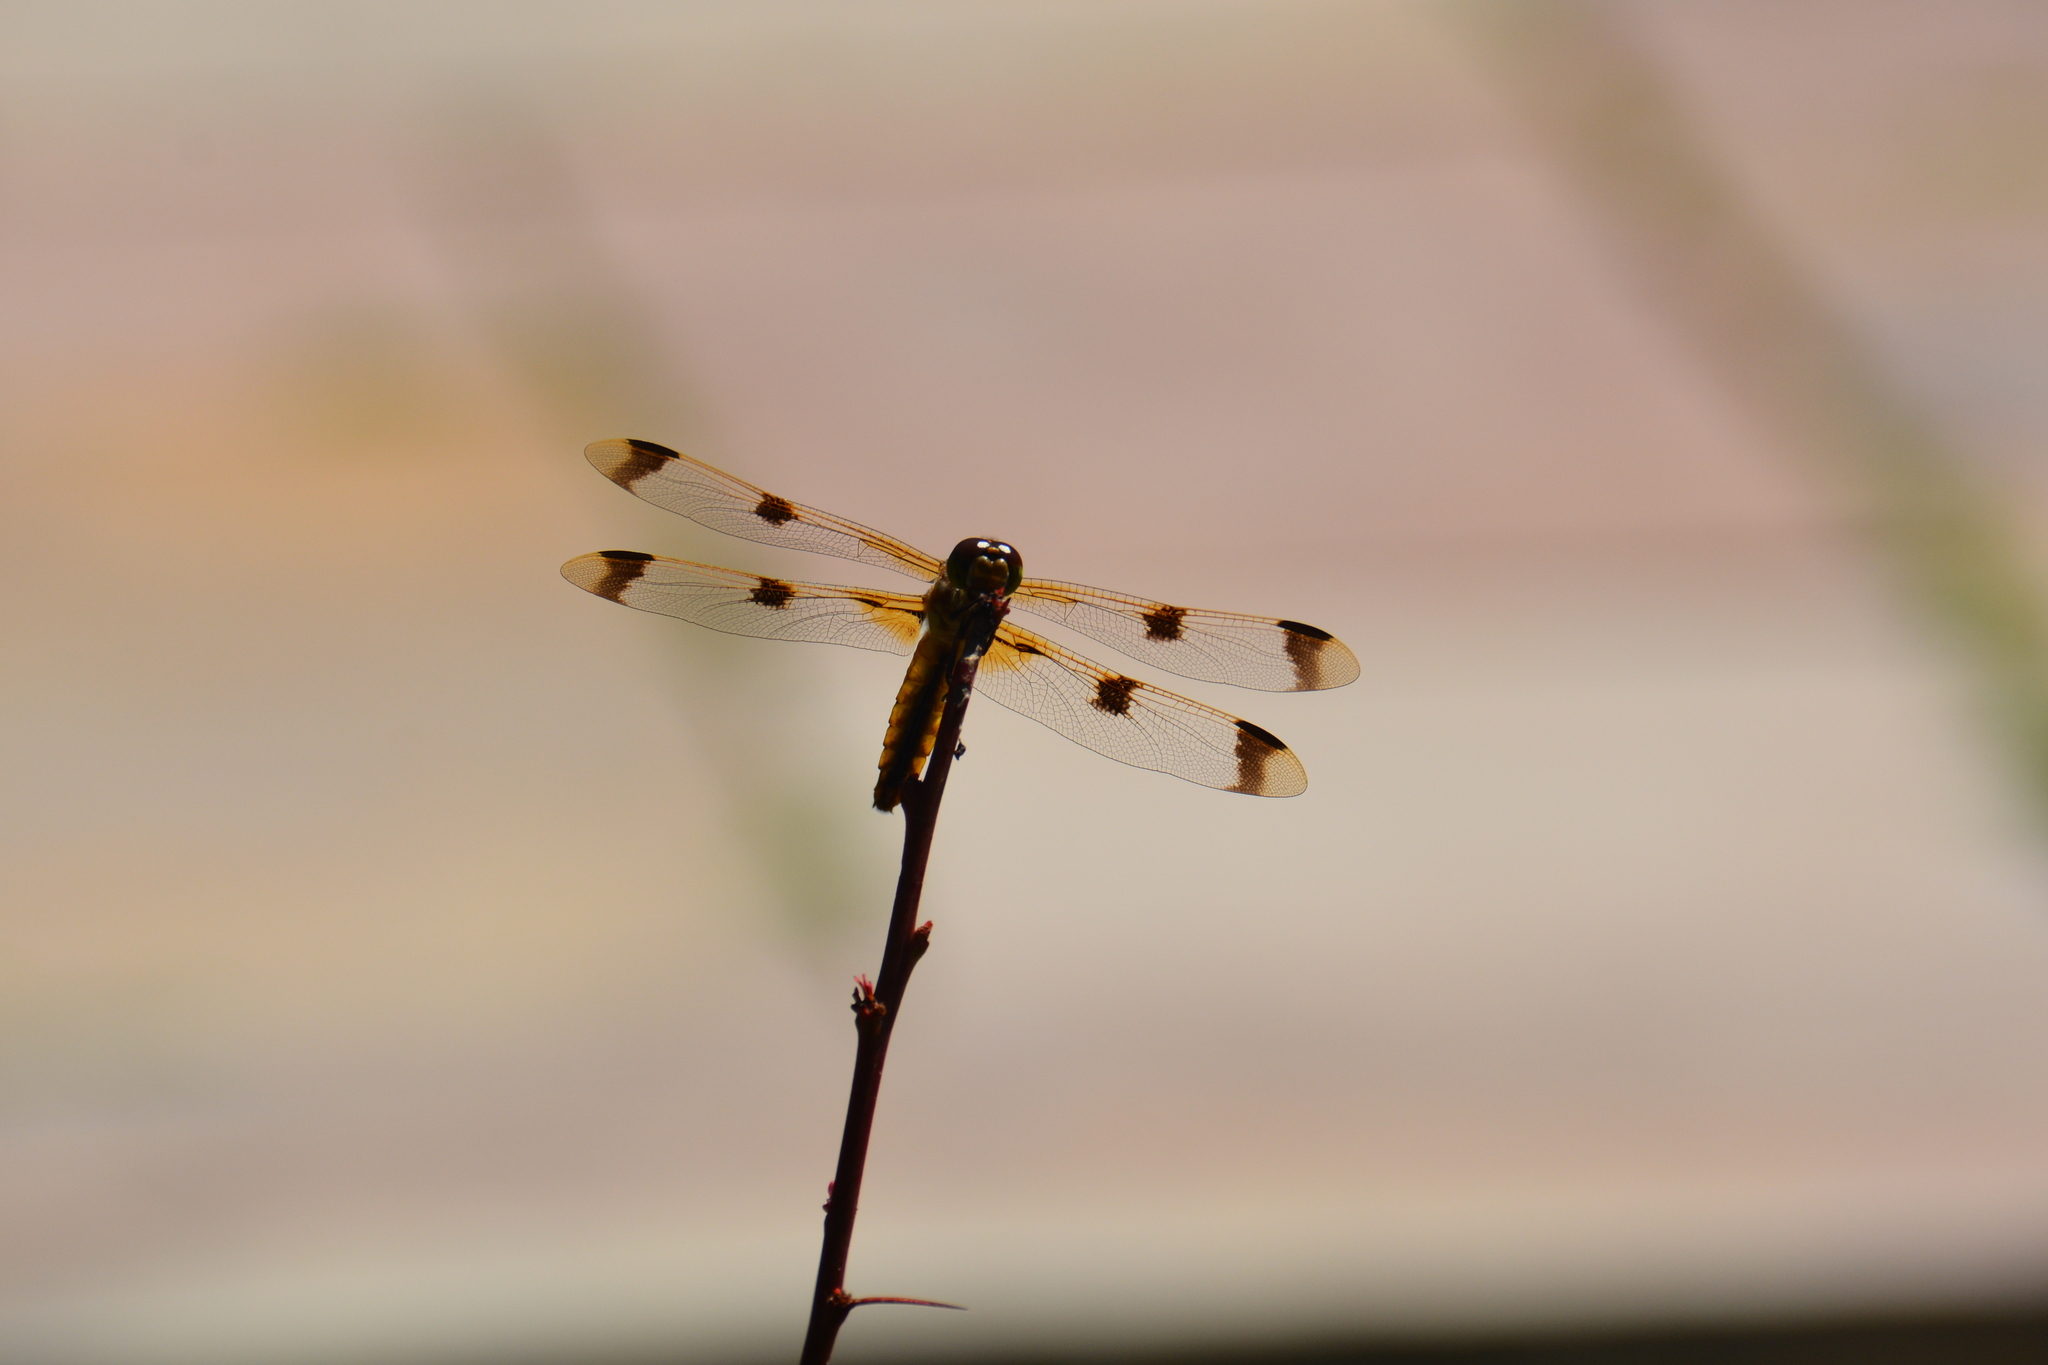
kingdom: Animalia
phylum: Arthropoda
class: Insecta
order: Odonata
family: Libellulidae
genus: Libellula
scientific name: Libellula semifasciata
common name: Painted skimmer
